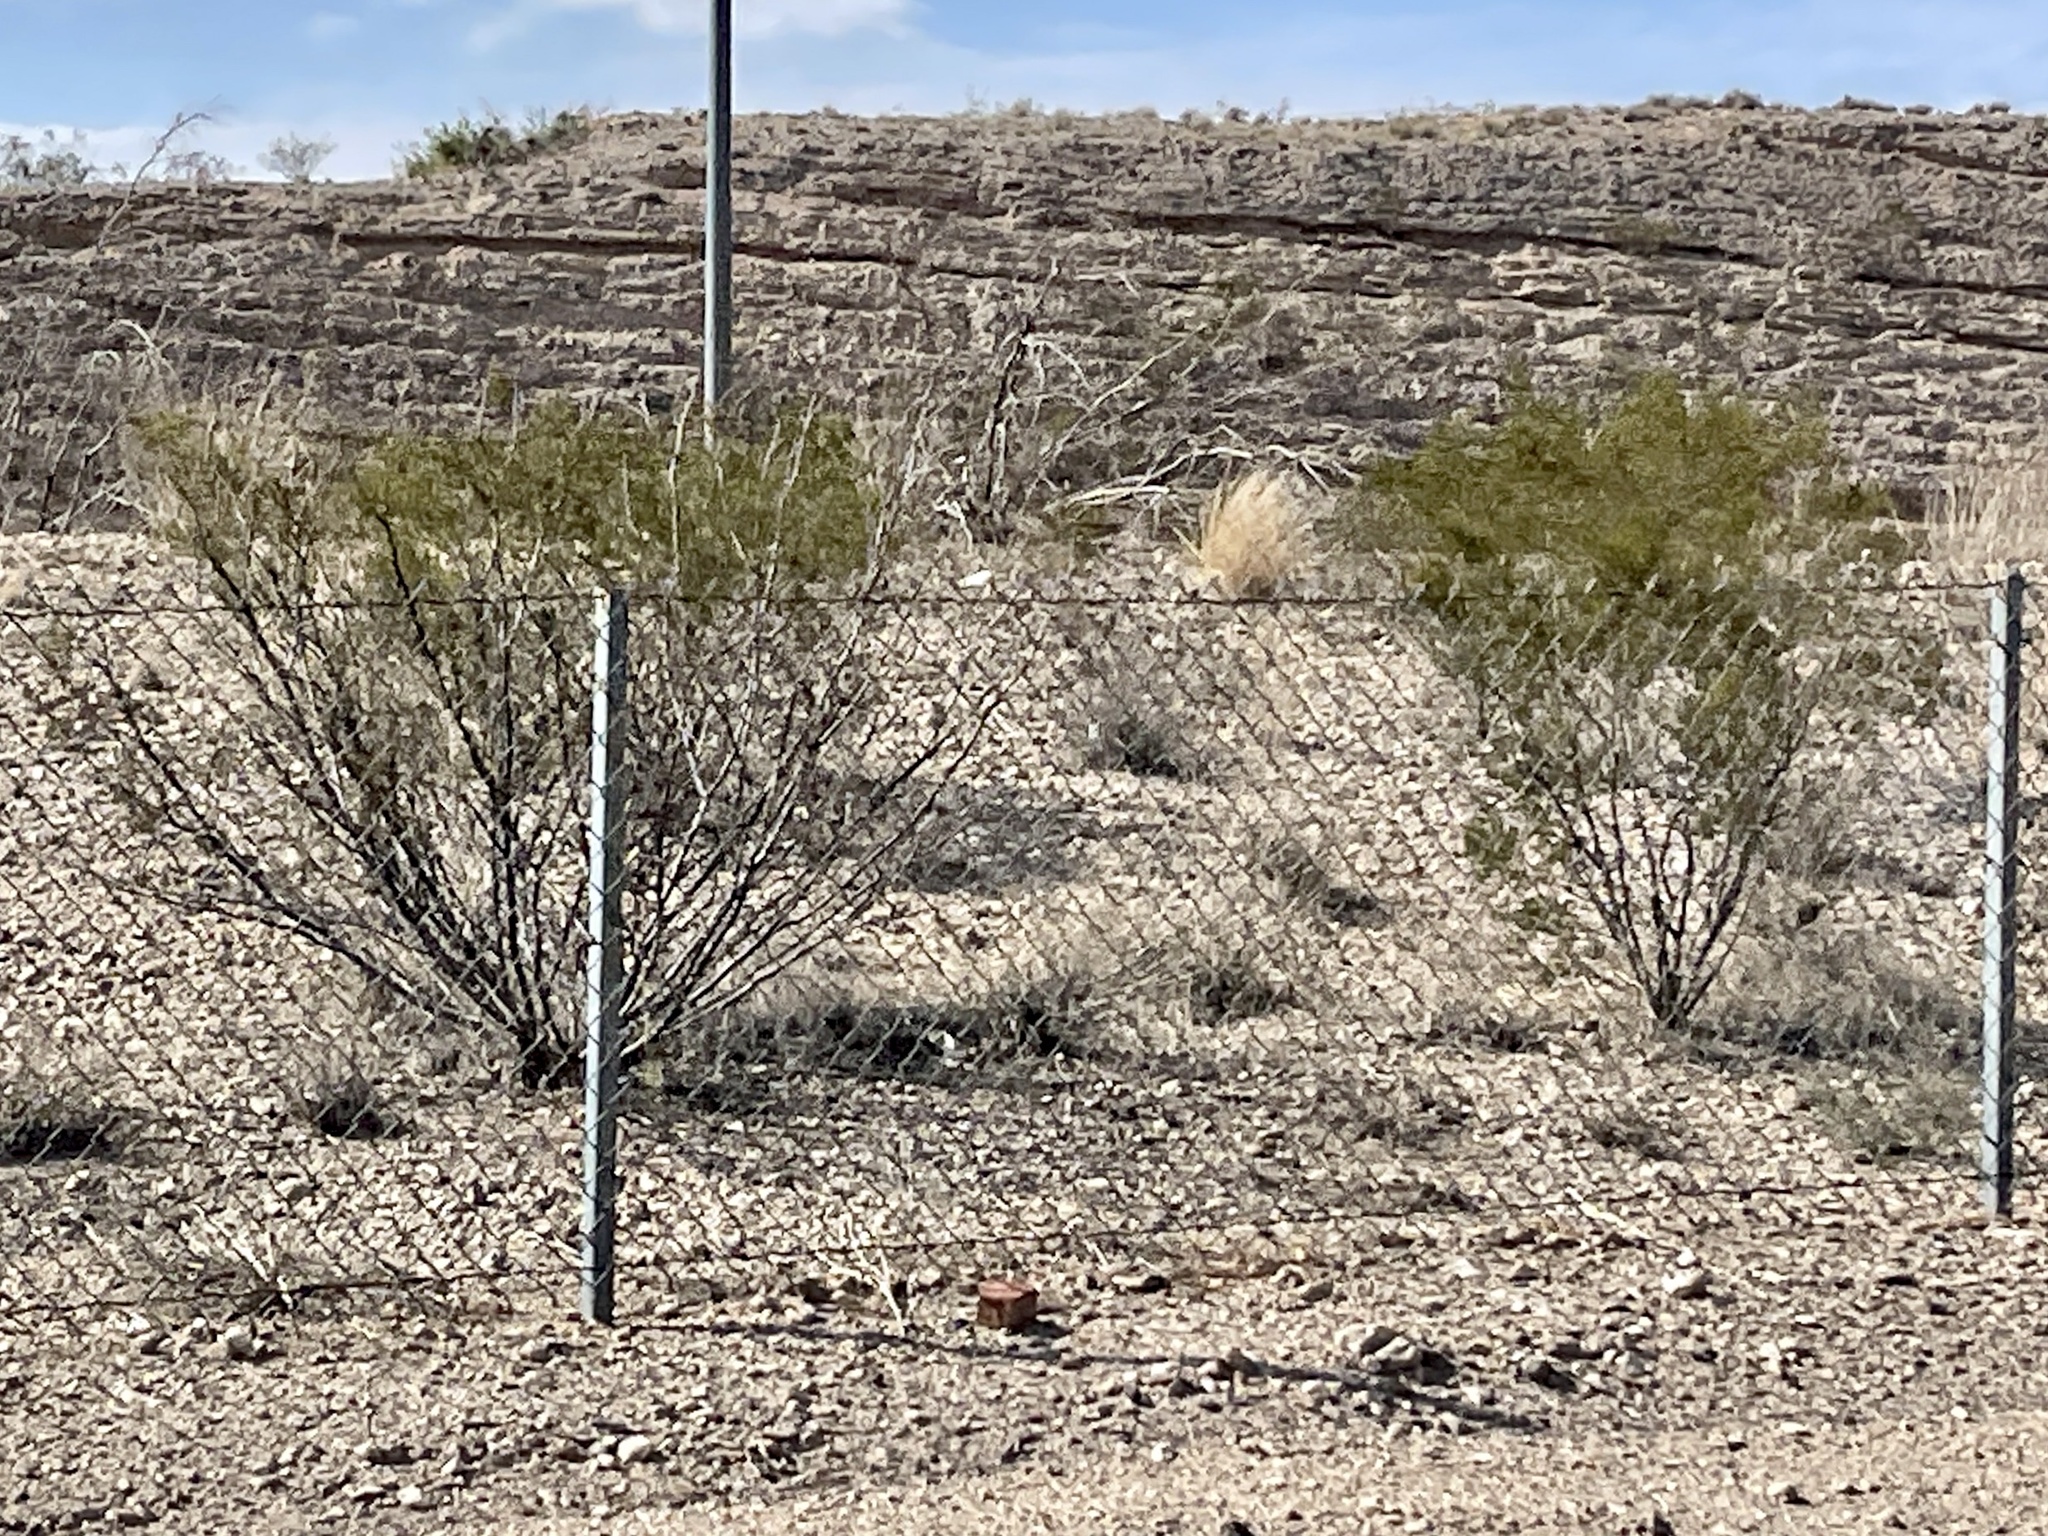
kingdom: Plantae
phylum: Tracheophyta
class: Magnoliopsida
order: Zygophyllales
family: Zygophyllaceae
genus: Larrea
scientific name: Larrea tridentata
